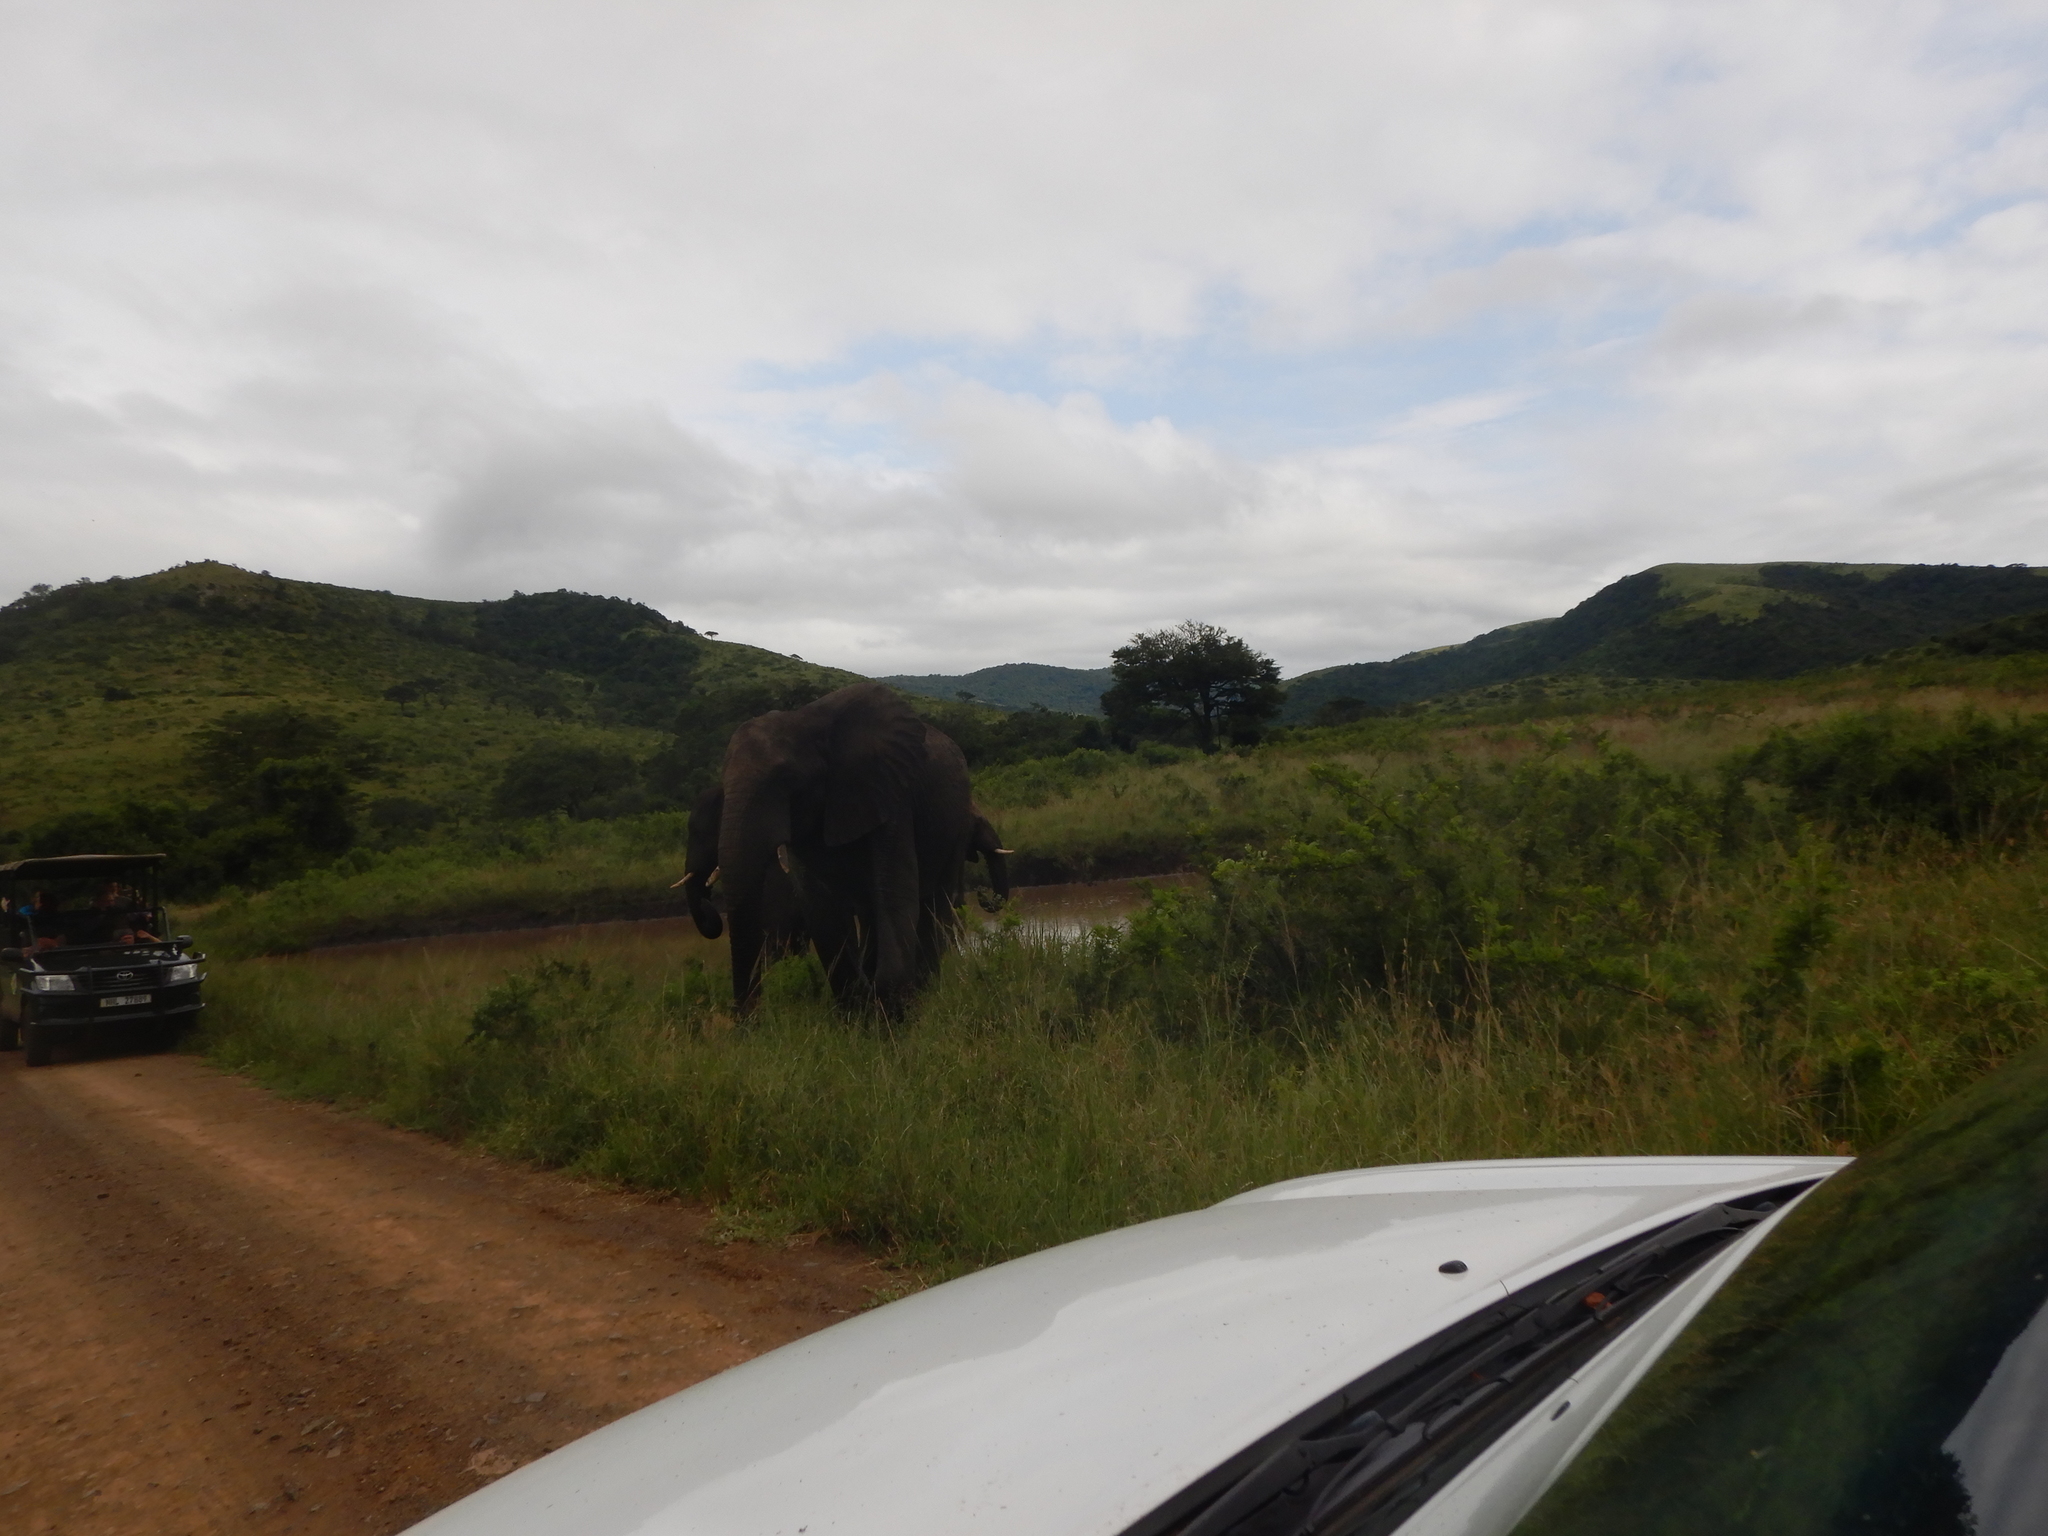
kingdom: Animalia
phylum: Chordata
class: Mammalia
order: Proboscidea
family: Elephantidae
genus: Loxodonta
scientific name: Loxodonta africana
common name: African elephant
